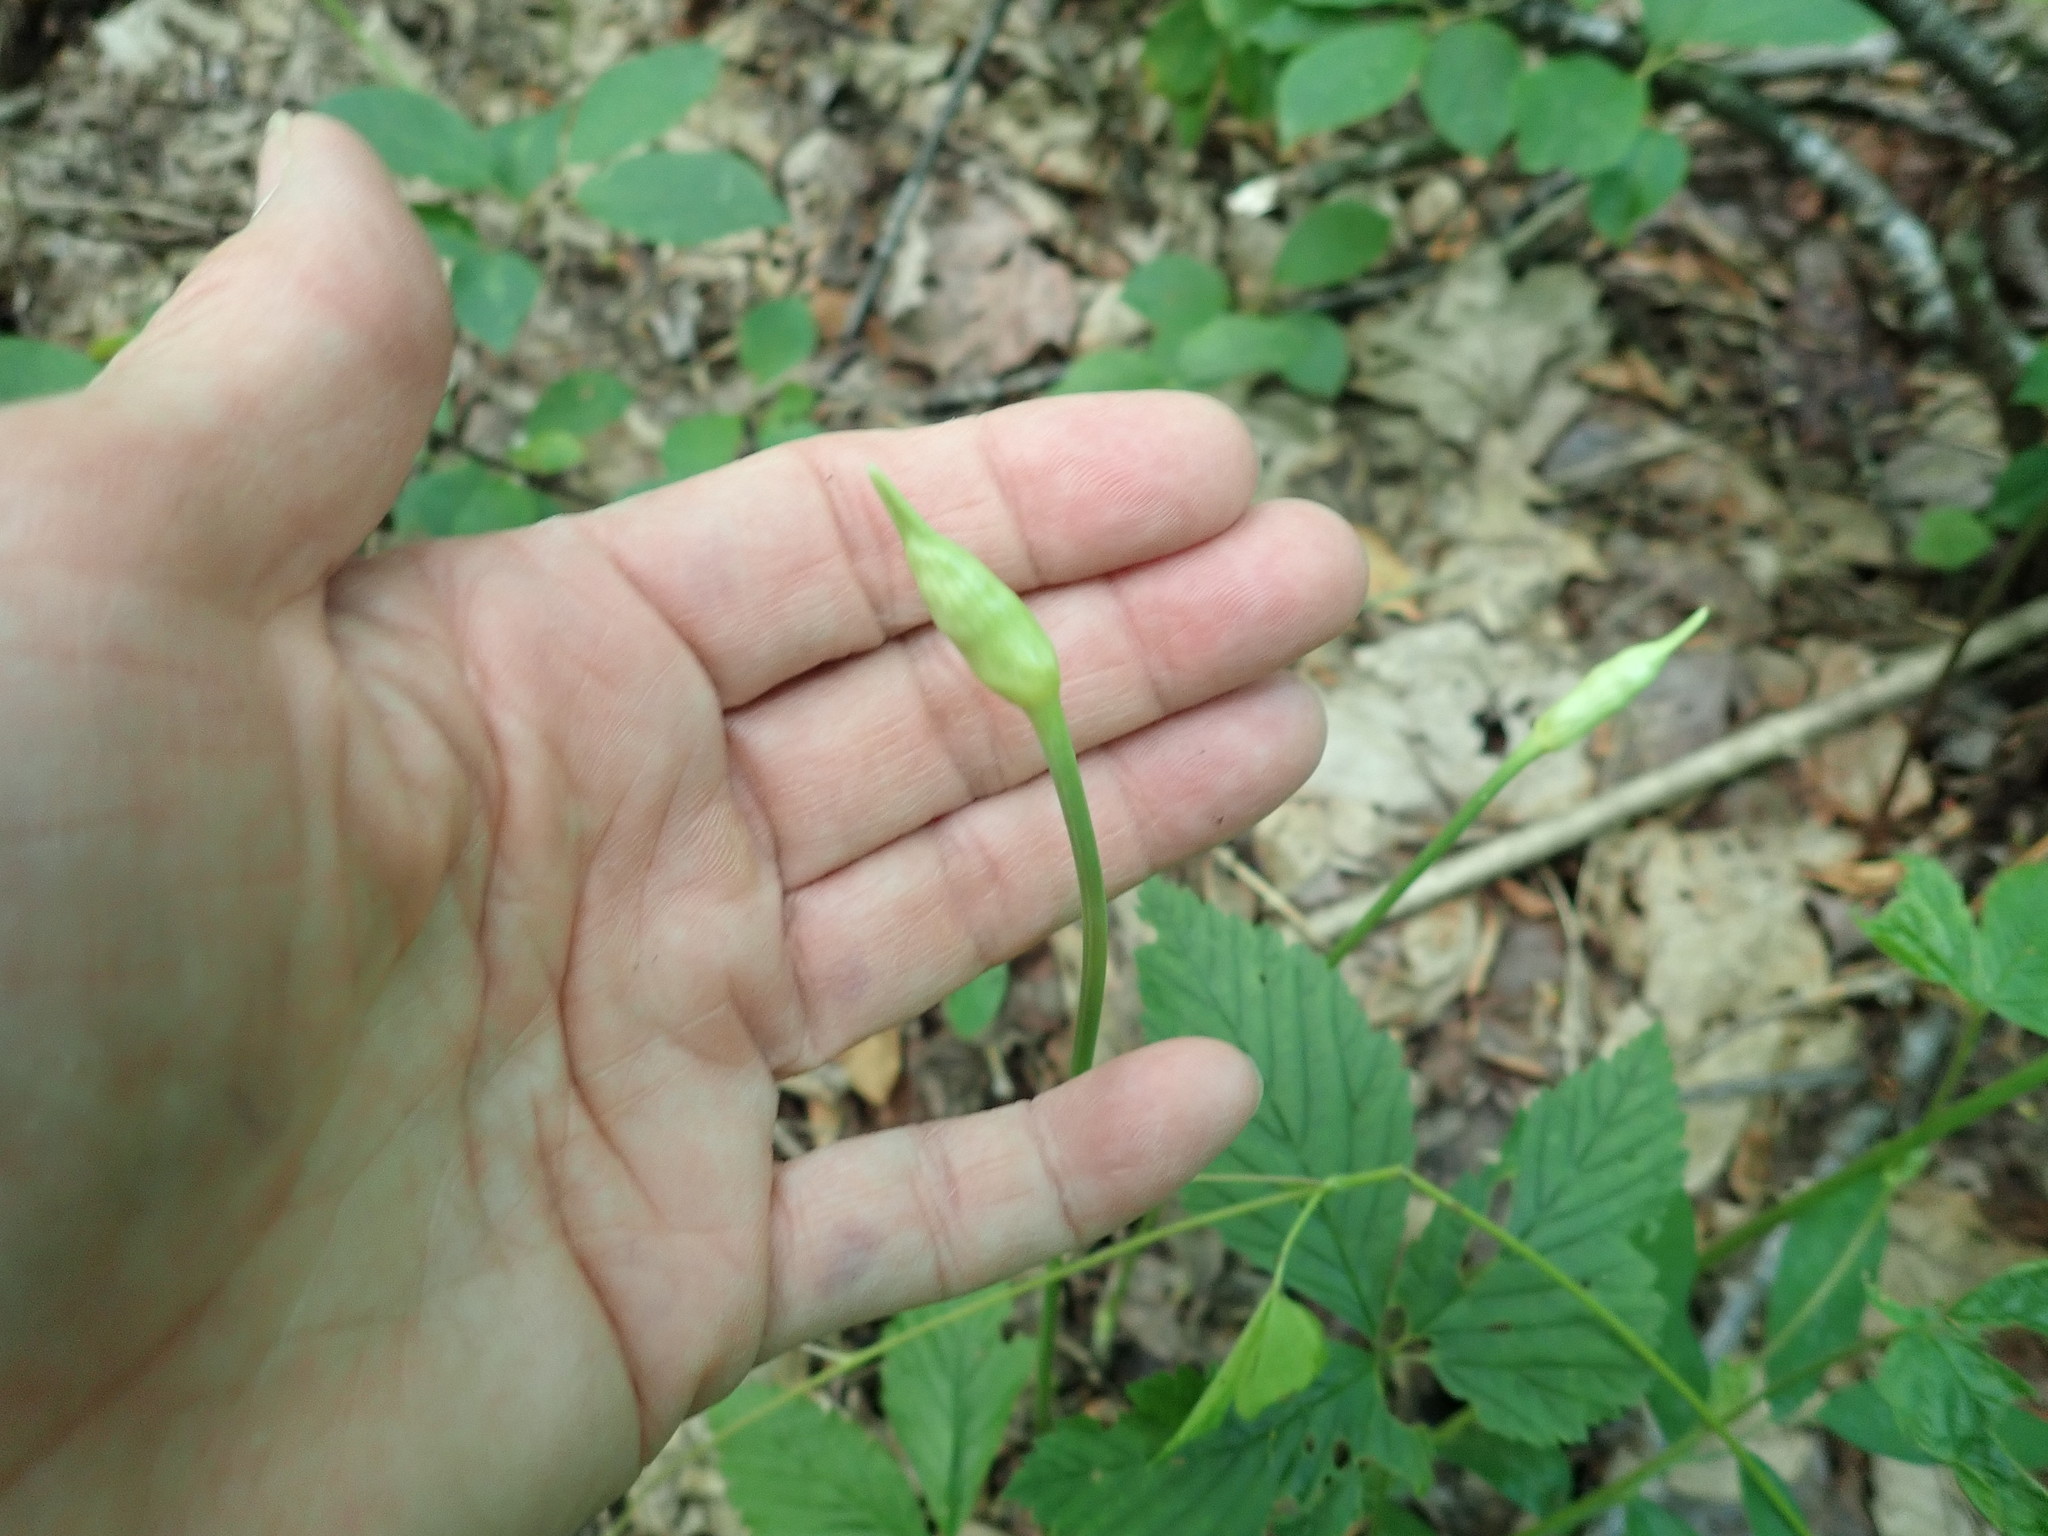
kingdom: Plantae
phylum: Tracheophyta
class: Liliopsida
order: Asparagales
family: Amaryllidaceae
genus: Allium
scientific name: Allium tricoccum
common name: Ramp
